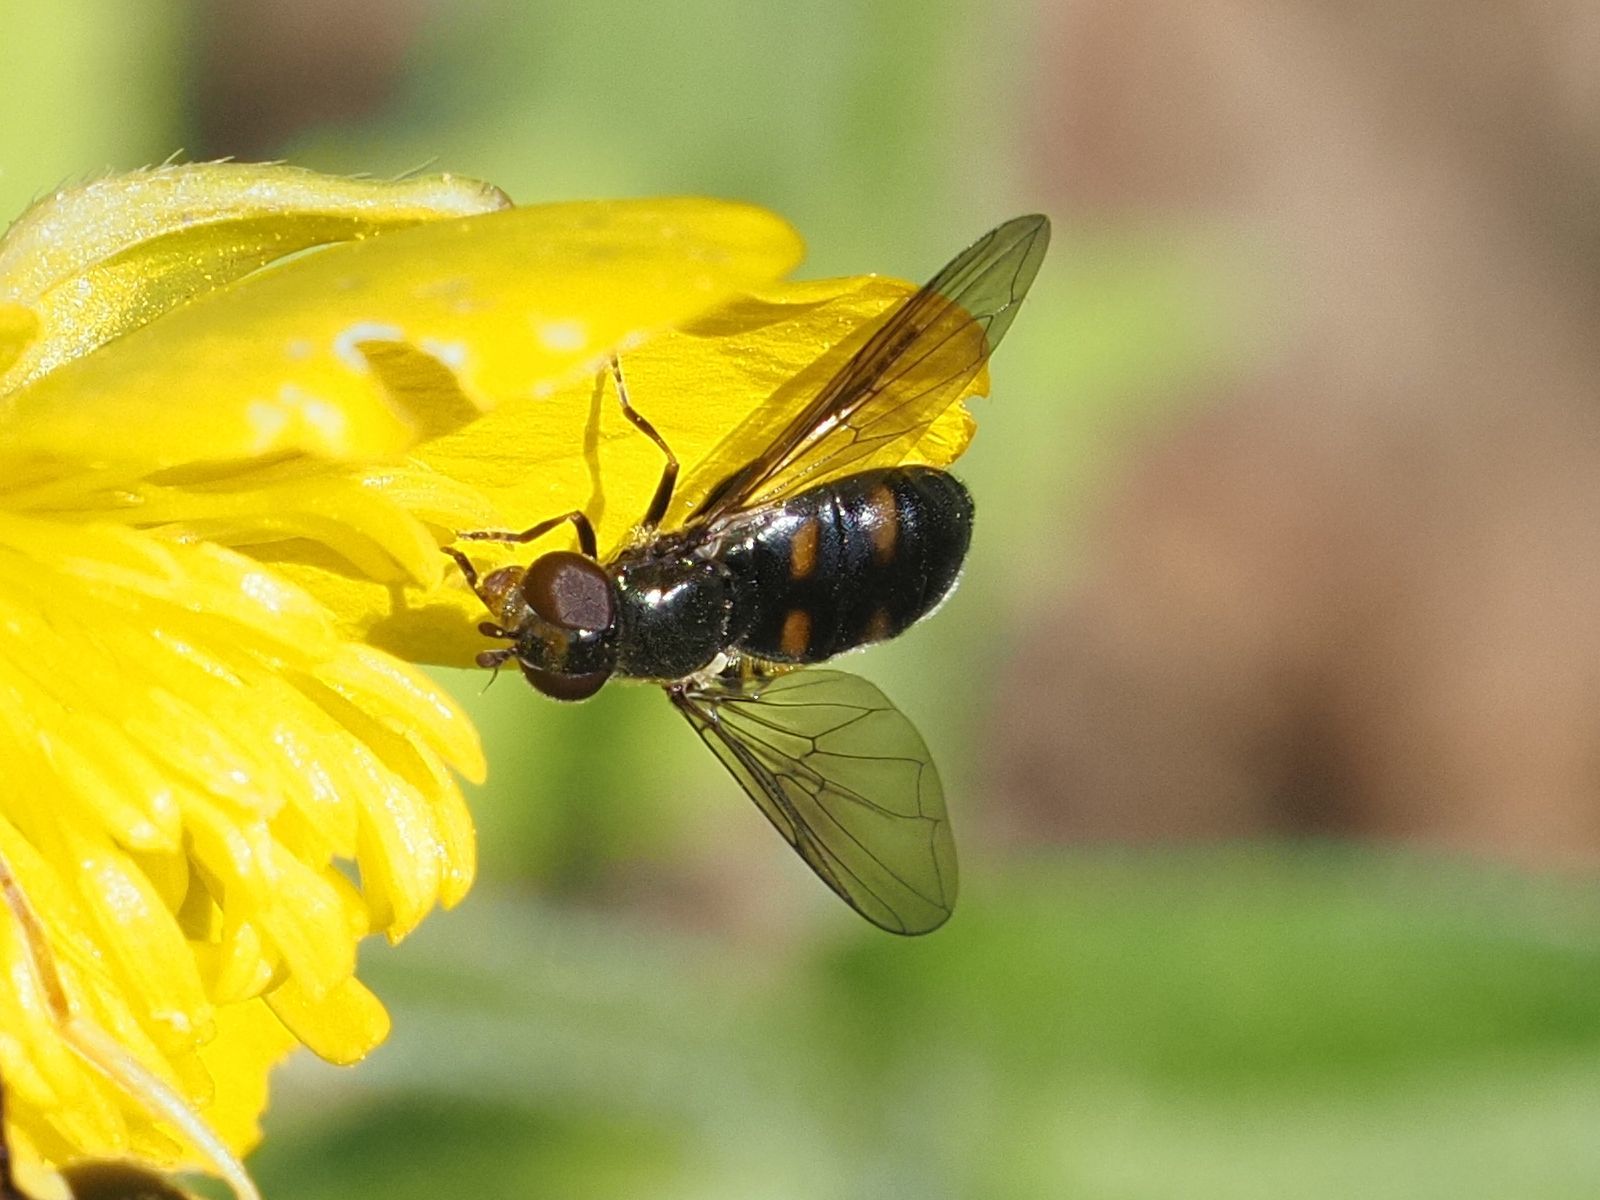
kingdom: Animalia
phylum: Arthropoda
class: Insecta
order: Diptera
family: Syrphidae
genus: Pipiza
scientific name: Pipiza quadrimaculata
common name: Four-spotted pipiza
